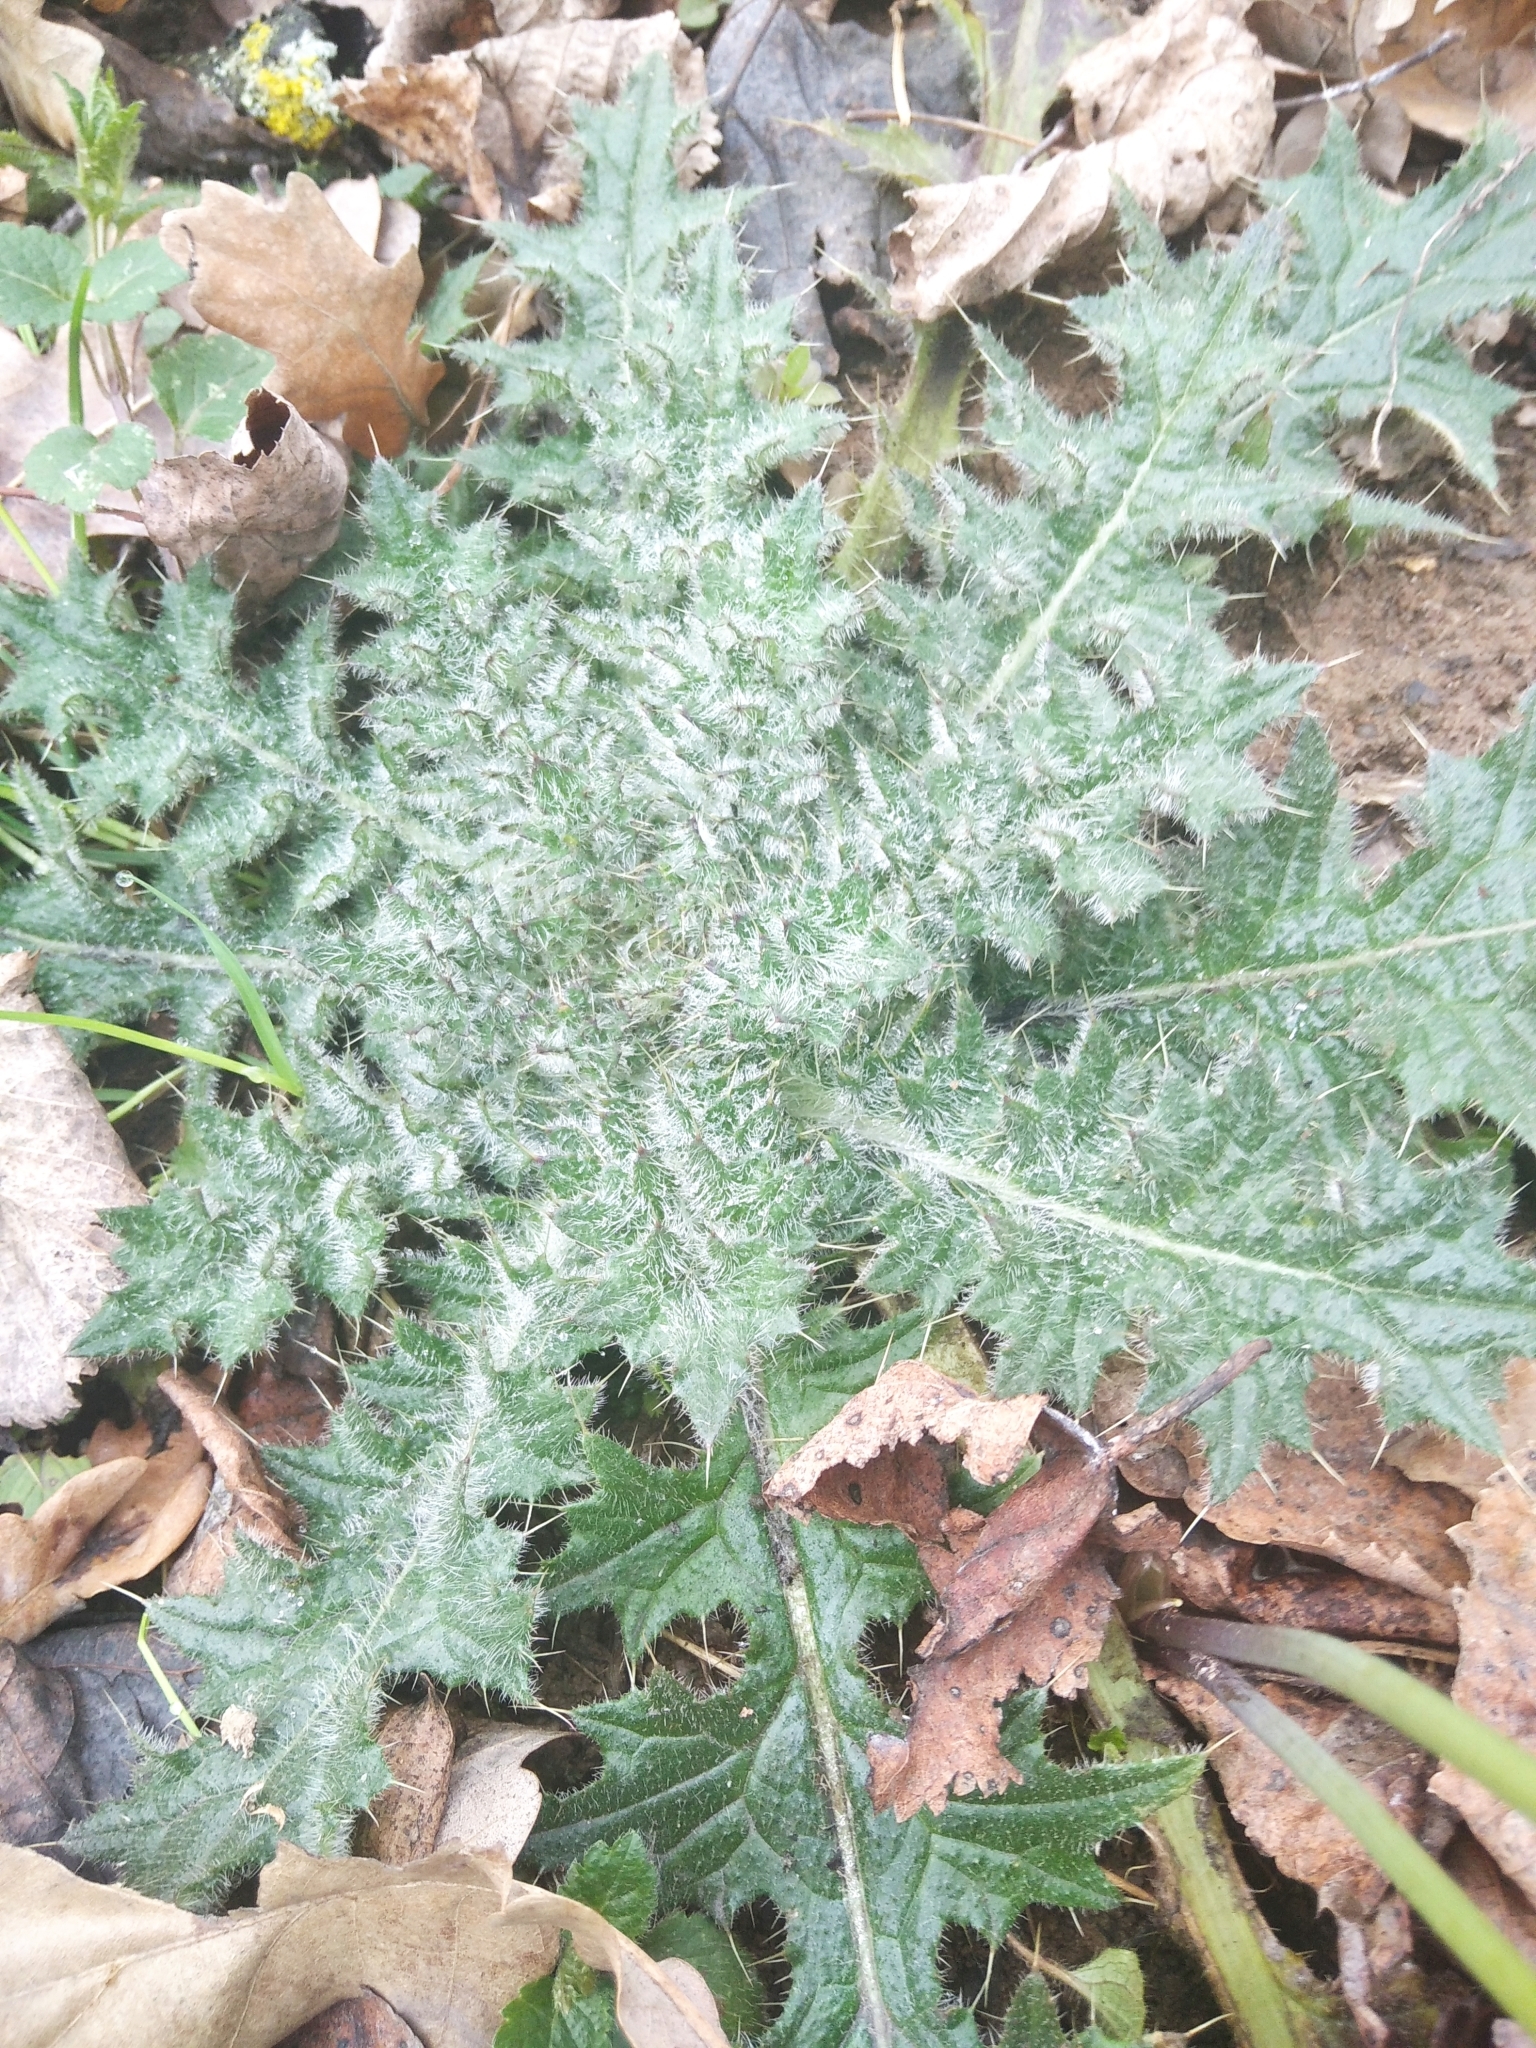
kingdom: Plantae
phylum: Tracheophyta
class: Magnoliopsida
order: Asterales
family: Asteraceae
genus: Cirsium
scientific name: Cirsium vulgare
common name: Bull thistle
